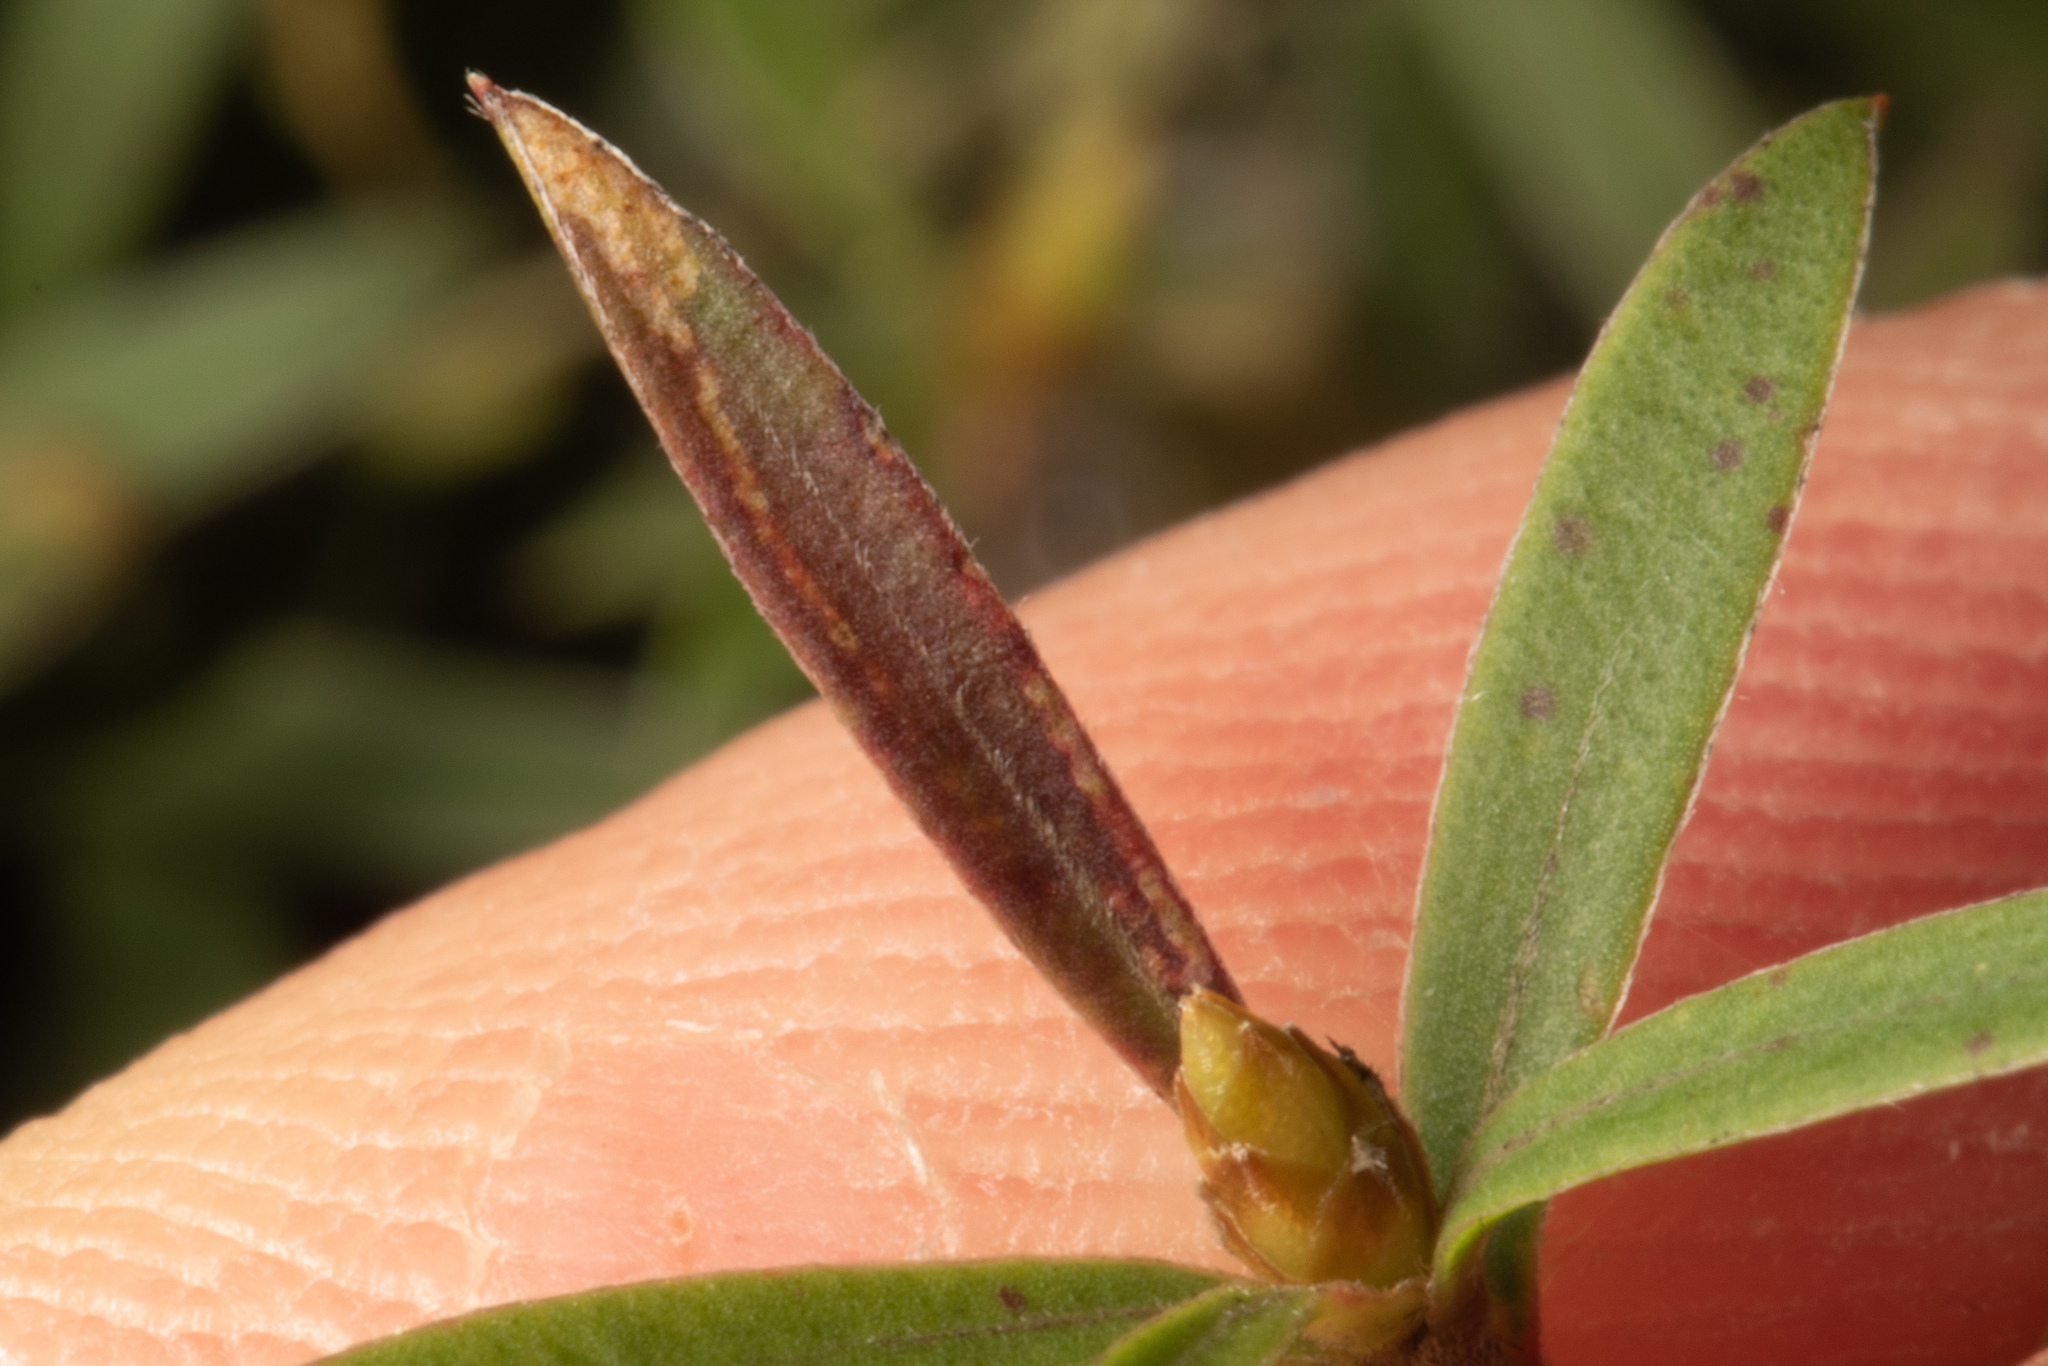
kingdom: Animalia
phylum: Arthropoda
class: Insecta
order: Lepidoptera
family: Heliozelidae
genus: Heliozela
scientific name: Heliozela catoptrias
